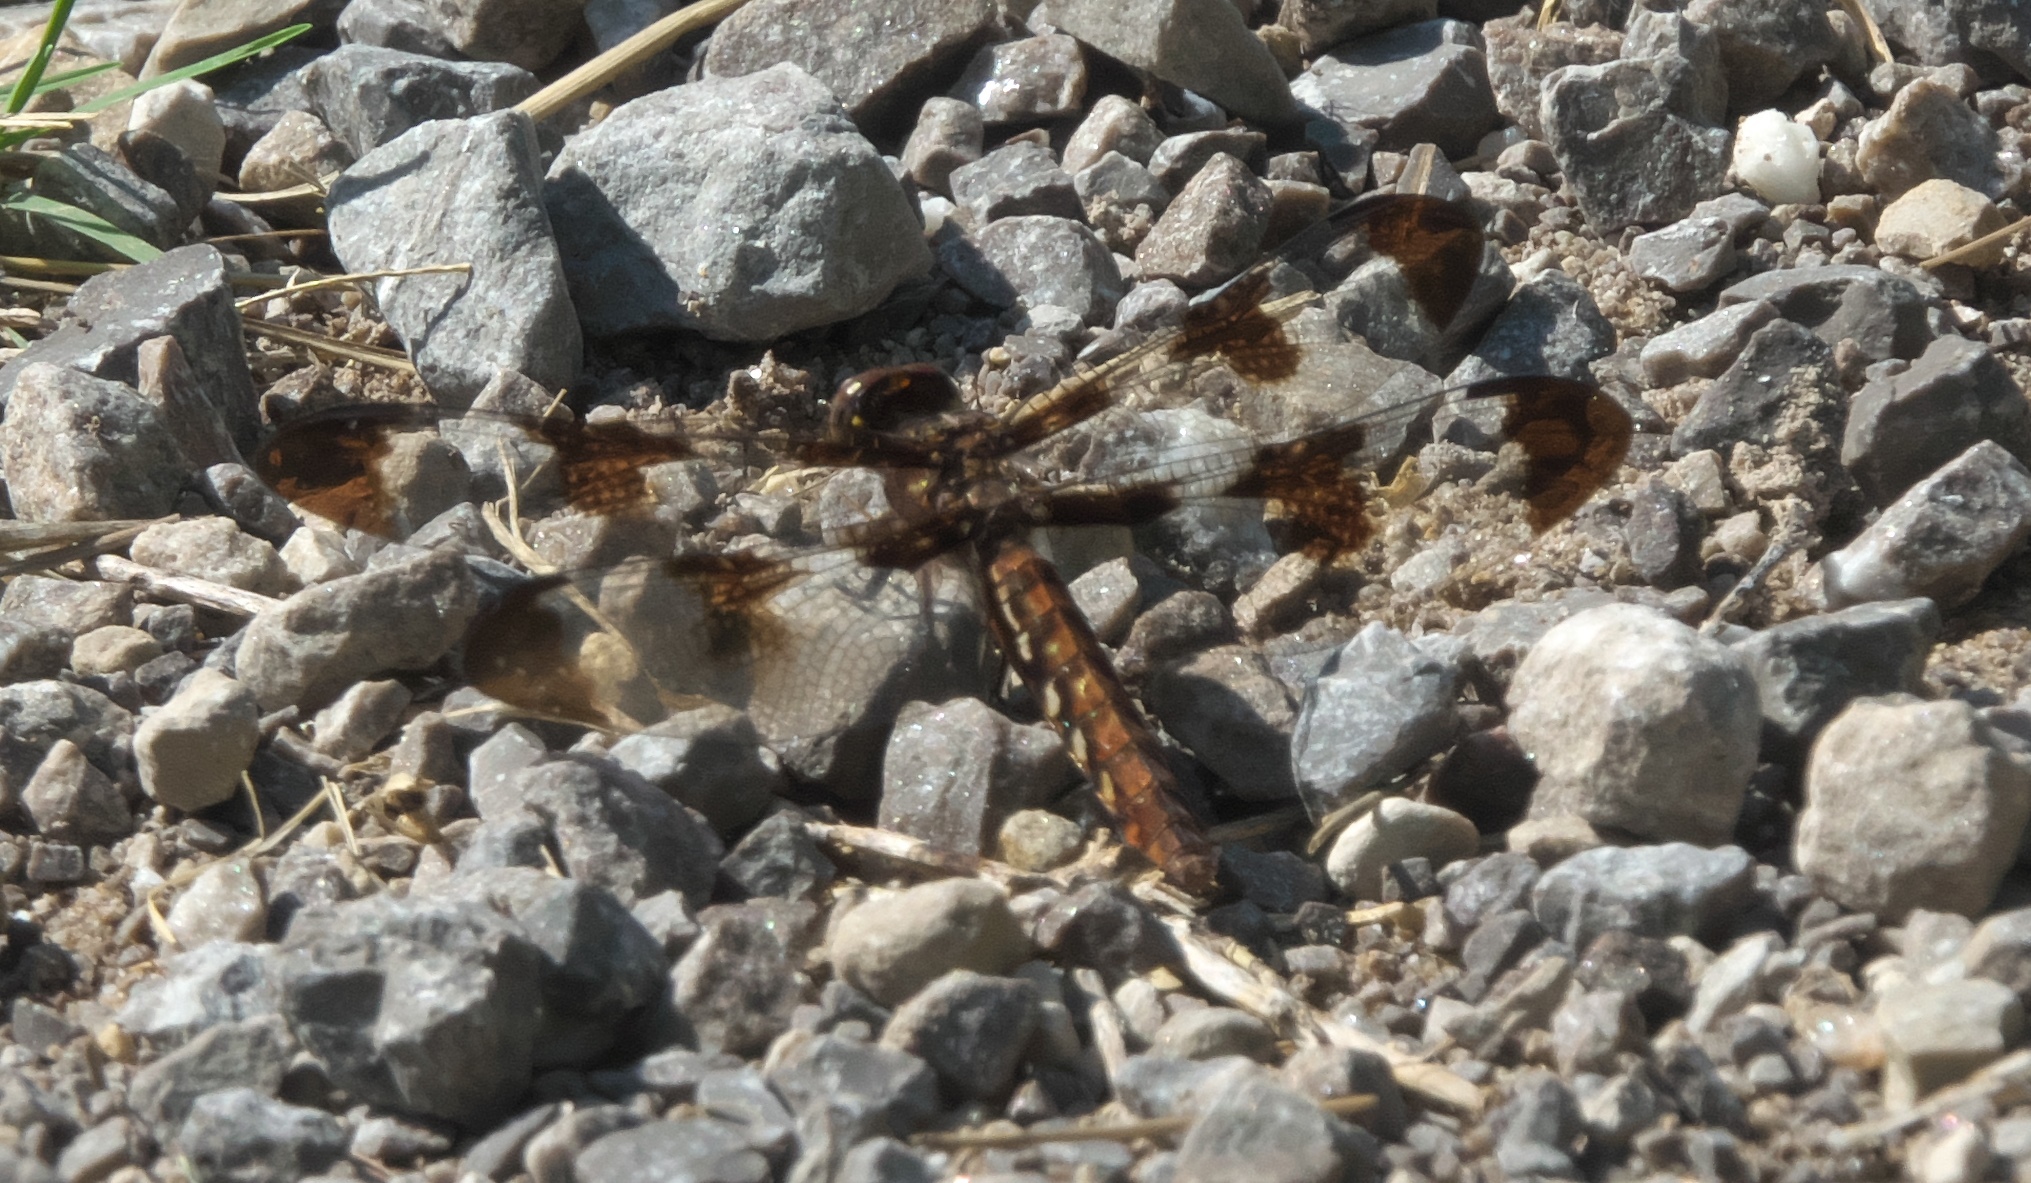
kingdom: Animalia
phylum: Arthropoda
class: Insecta
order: Odonata
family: Libellulidae
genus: Plathemis
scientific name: Plathemis lydia
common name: Common whitetail
